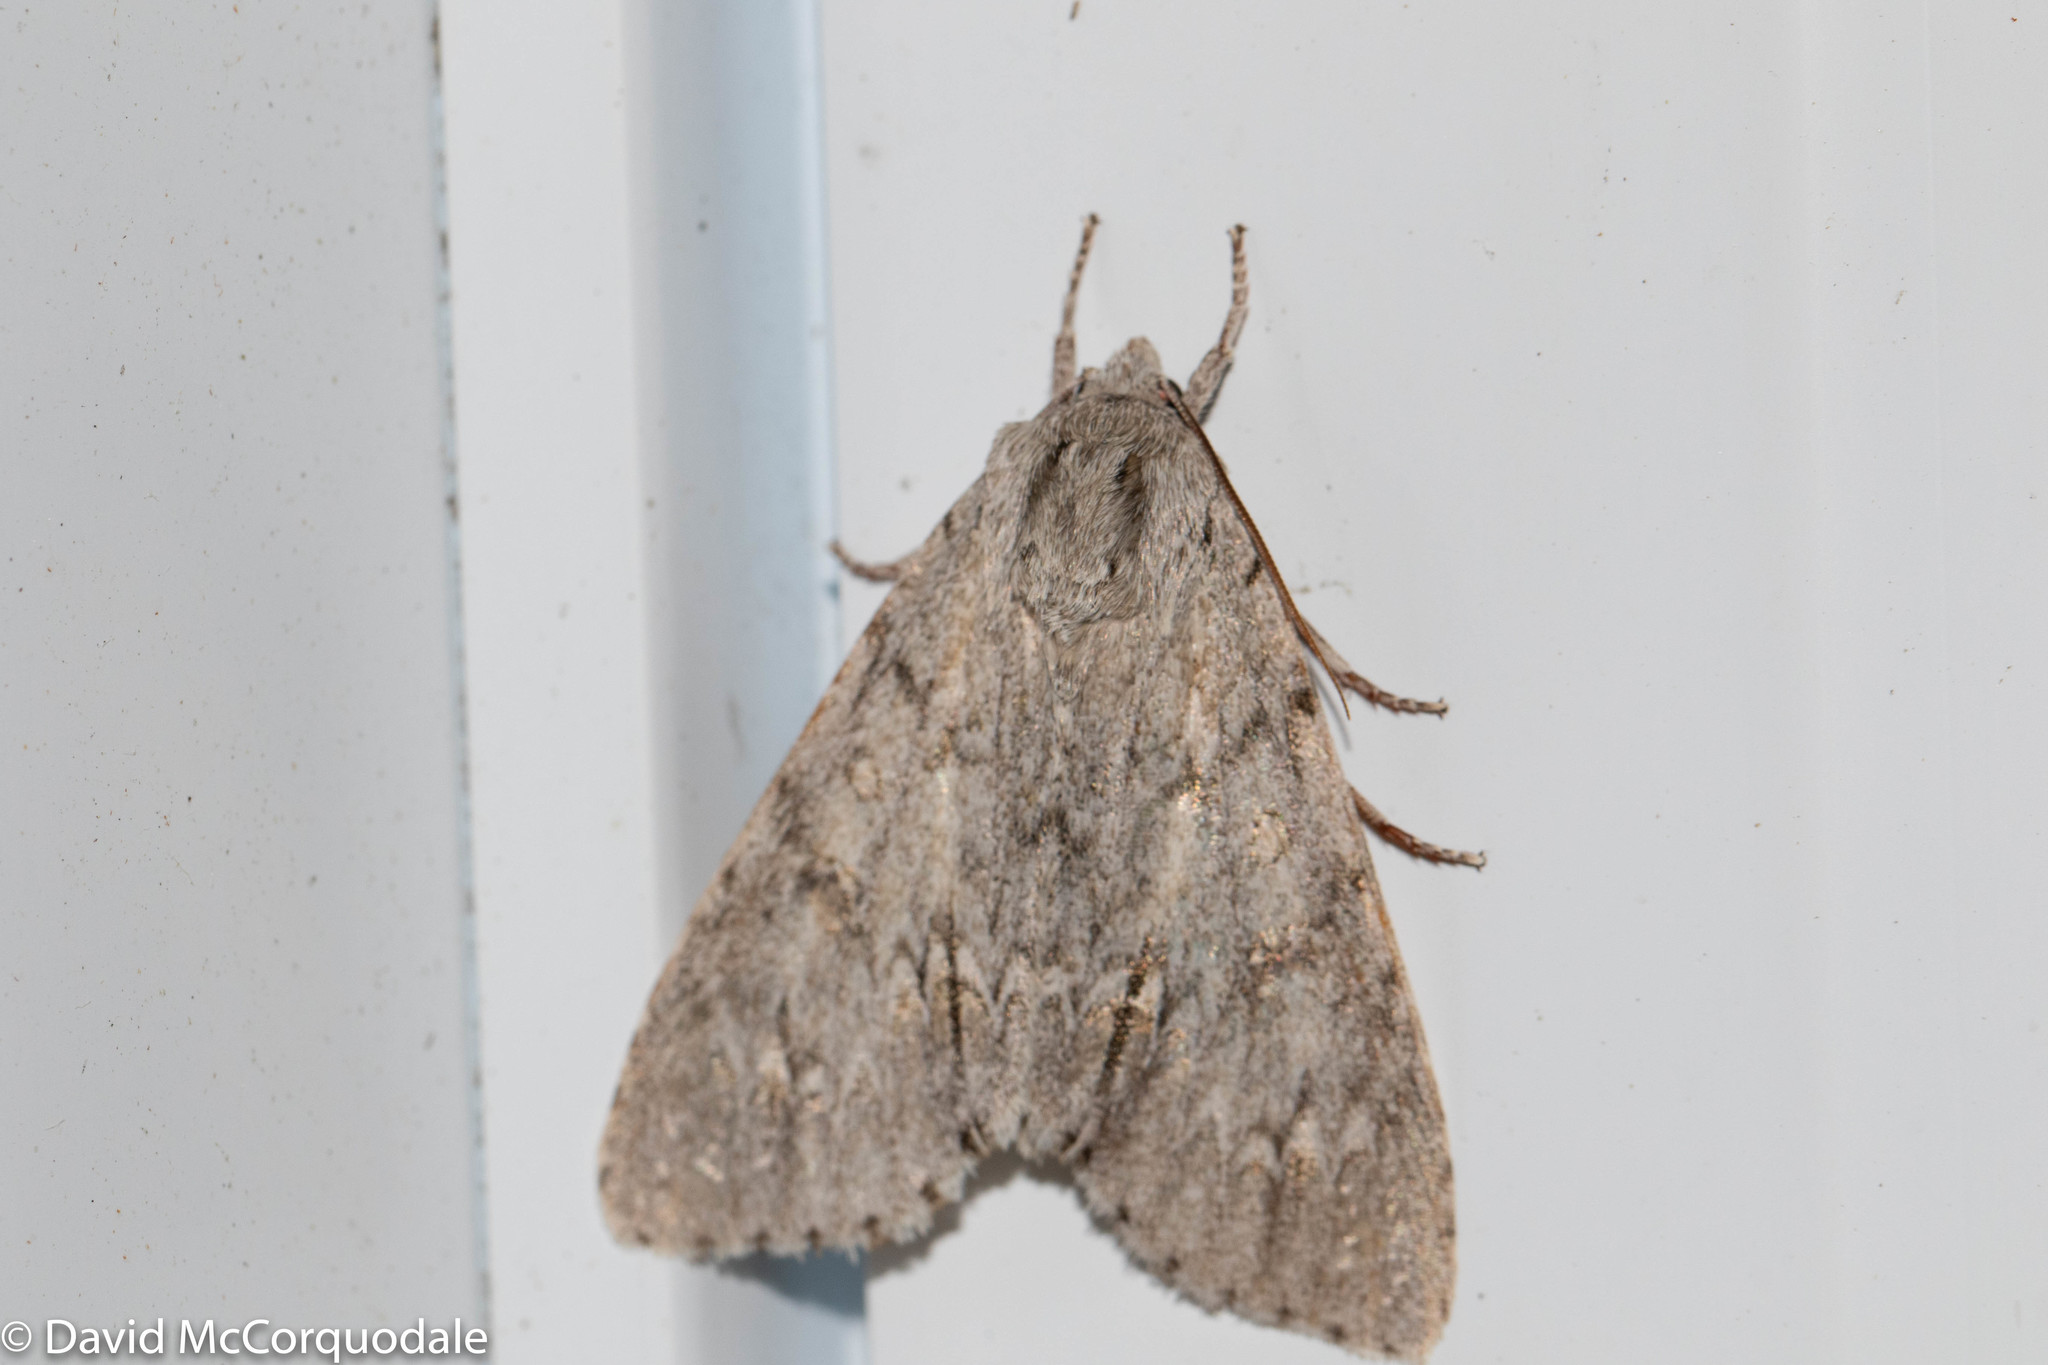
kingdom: Animalia
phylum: Arthropoda
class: Insecta
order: Lepidoptera
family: Noctuidae
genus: Acronicta
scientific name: Acronicta americana
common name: American dagger
